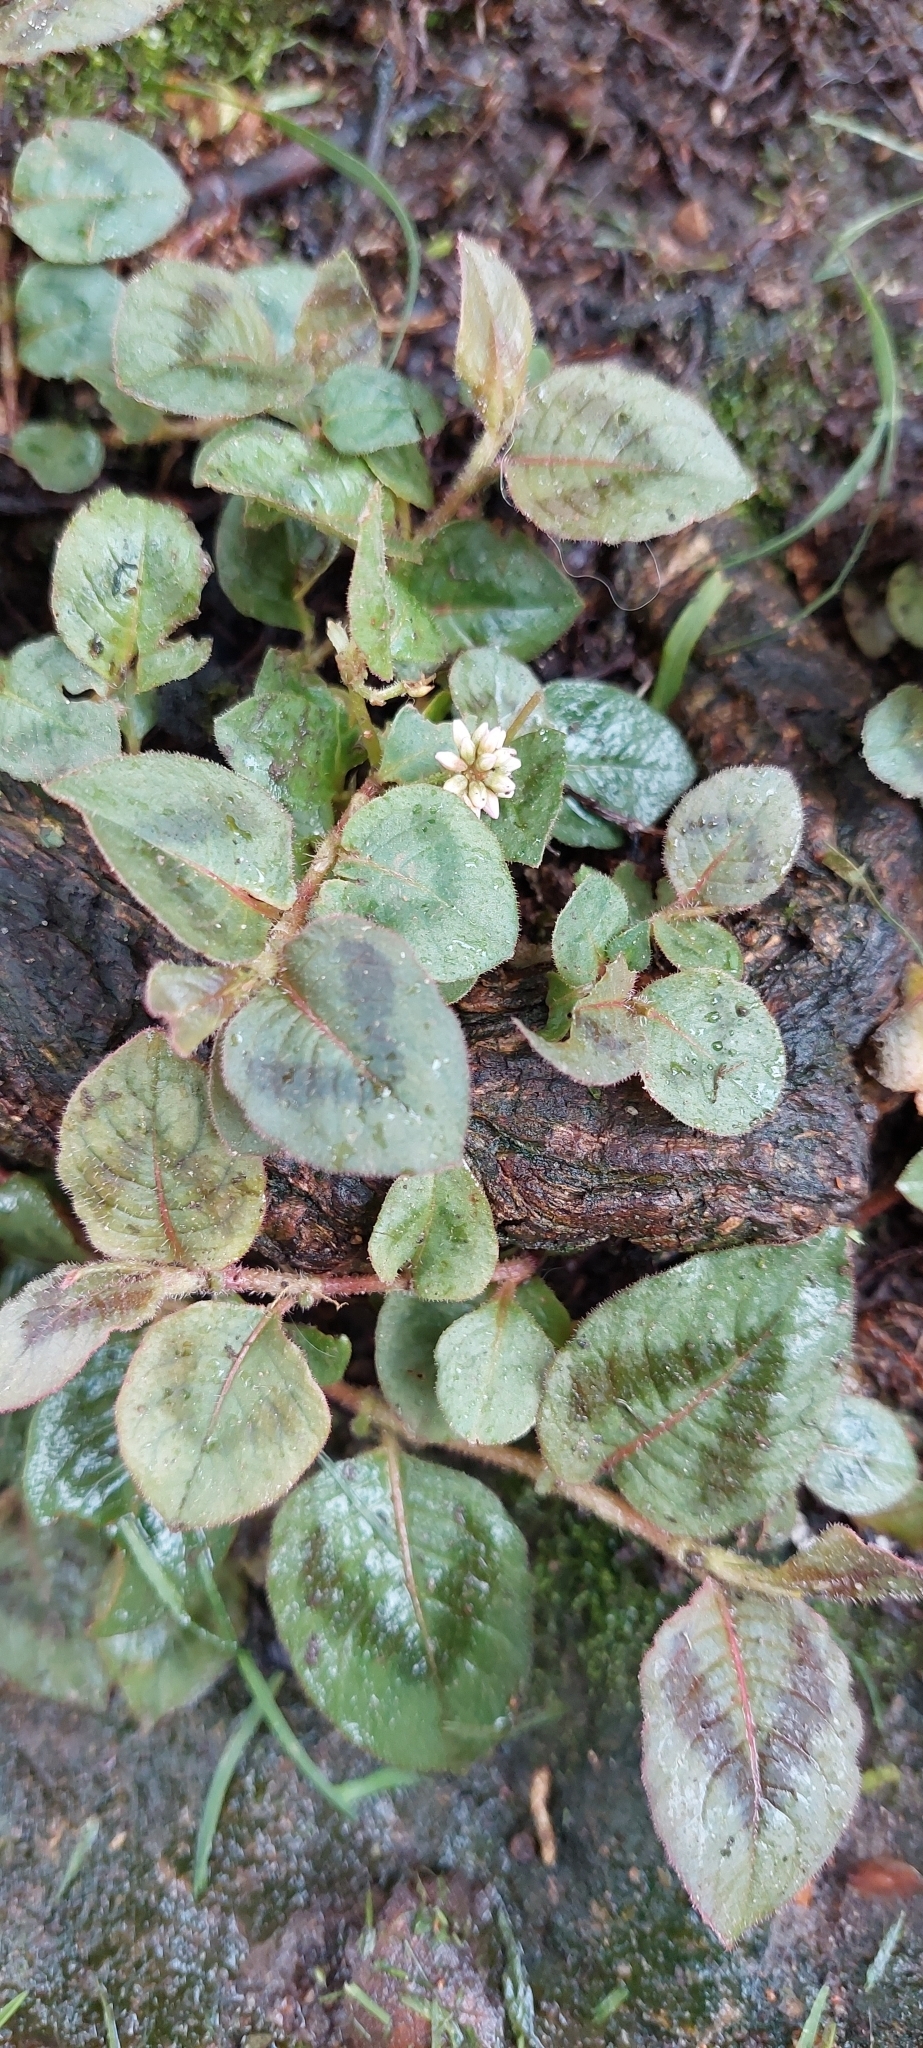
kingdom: Plantae
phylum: Tracheophyta
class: Magnoliopsida
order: Caryophyllales
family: Polygonaceae
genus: Persicaria
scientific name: Persicaria capitata
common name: Pinkhead smartweed
